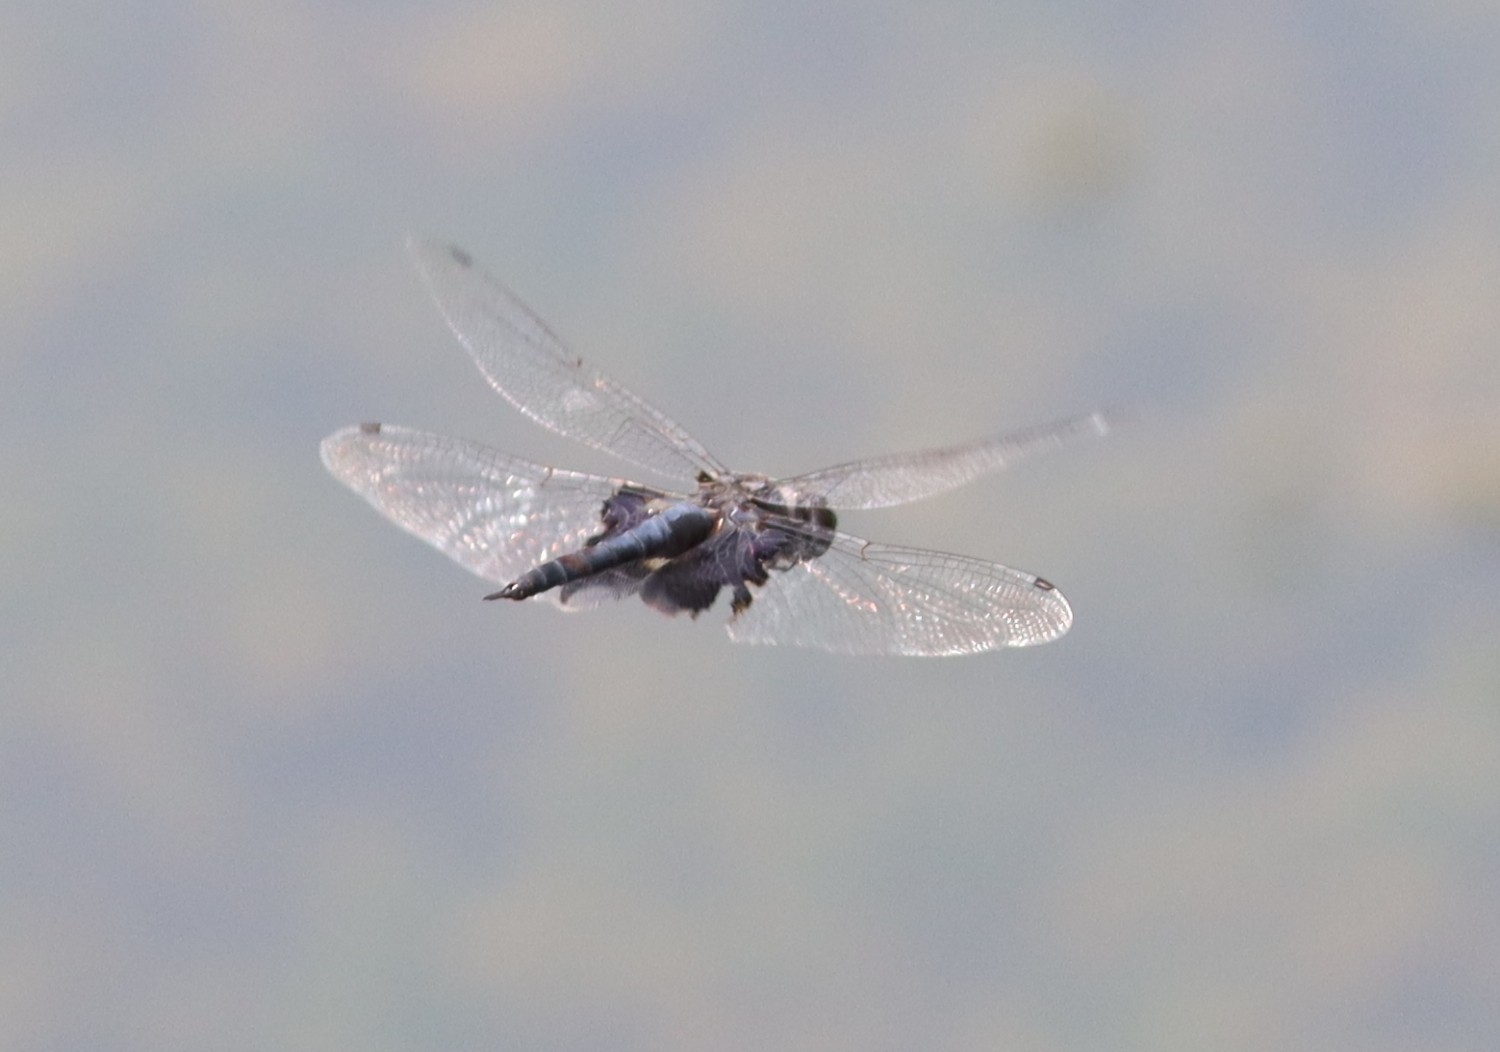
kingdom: Animalia
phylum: Arthropoda
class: Insecta
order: Odonata
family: Libellulidae
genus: Tramea
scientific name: Tramea lacerata
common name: Black saddlebags
